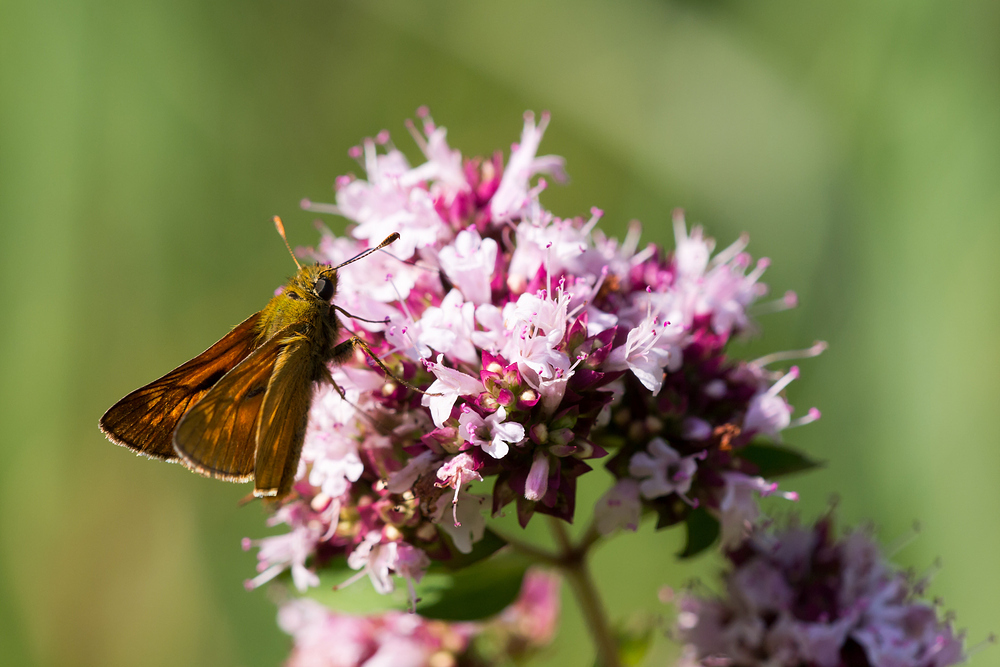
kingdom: Animalia
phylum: Arthropoda
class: Insecta
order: Lepidoptera
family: Hesperiidae
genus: Ochlodes
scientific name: Ochlodes venata
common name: Large skipper
